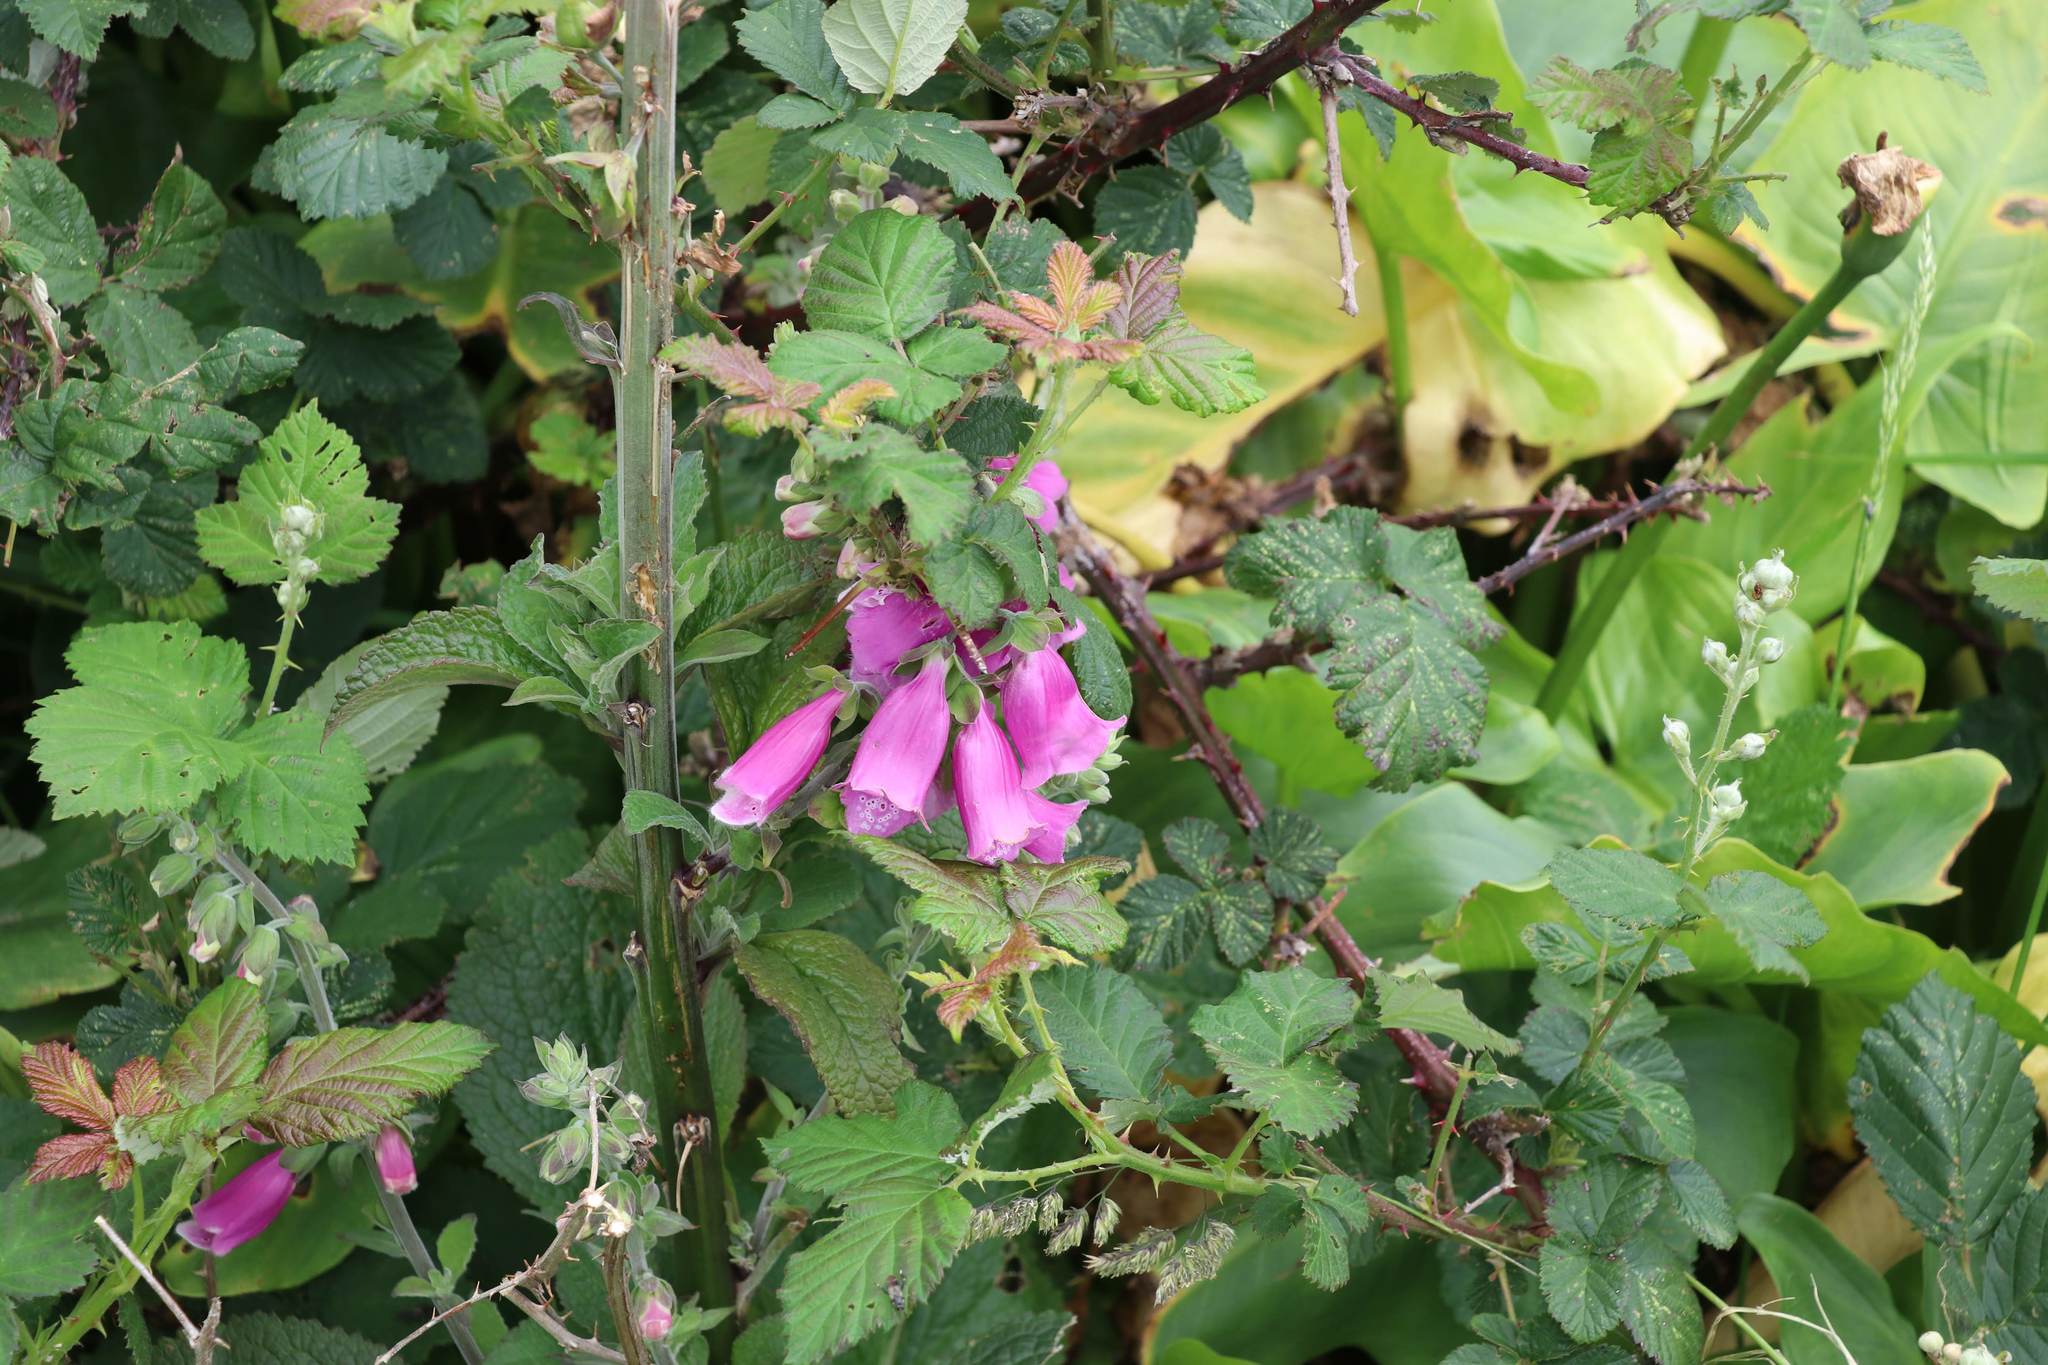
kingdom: Plantae
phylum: Tracheophyta
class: Magnoliopsida
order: Lamiales
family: Plantaginaceae
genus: Digitalis
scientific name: Digitalis purpurea
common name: Foxglove
